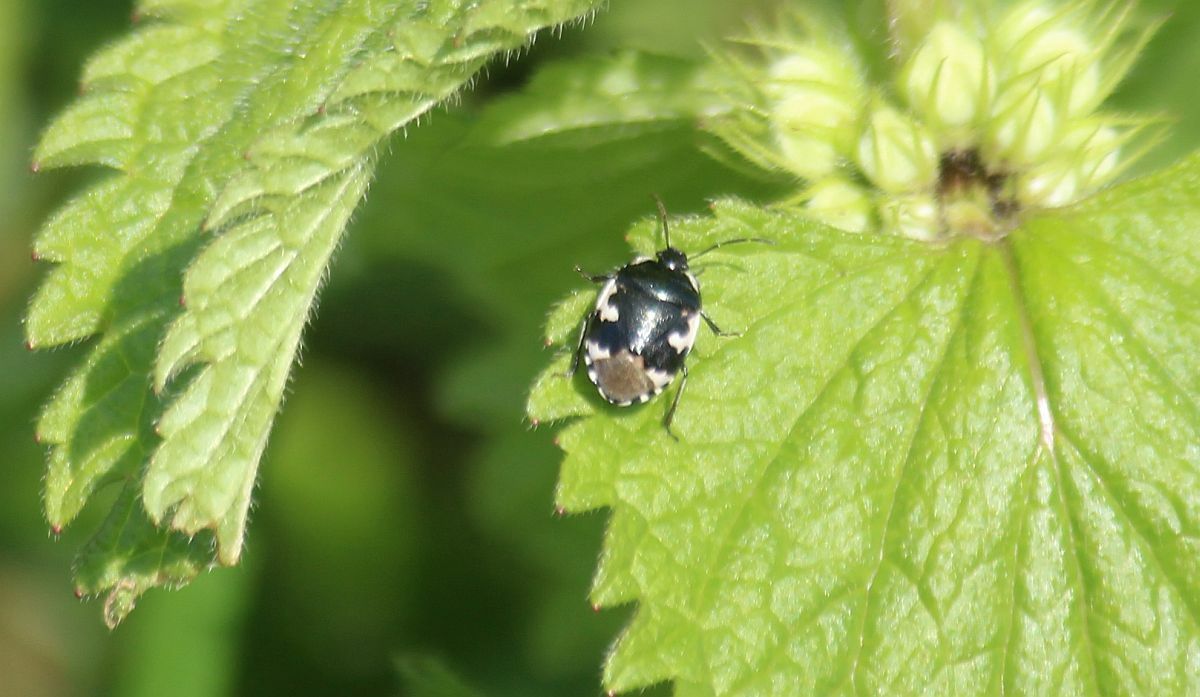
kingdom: Animalia
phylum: Arthropoda
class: Insecta
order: Hemiptera
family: Cydnidae
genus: Tritomegas
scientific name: Tritomegas bicolor
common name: Pied shieldbug
